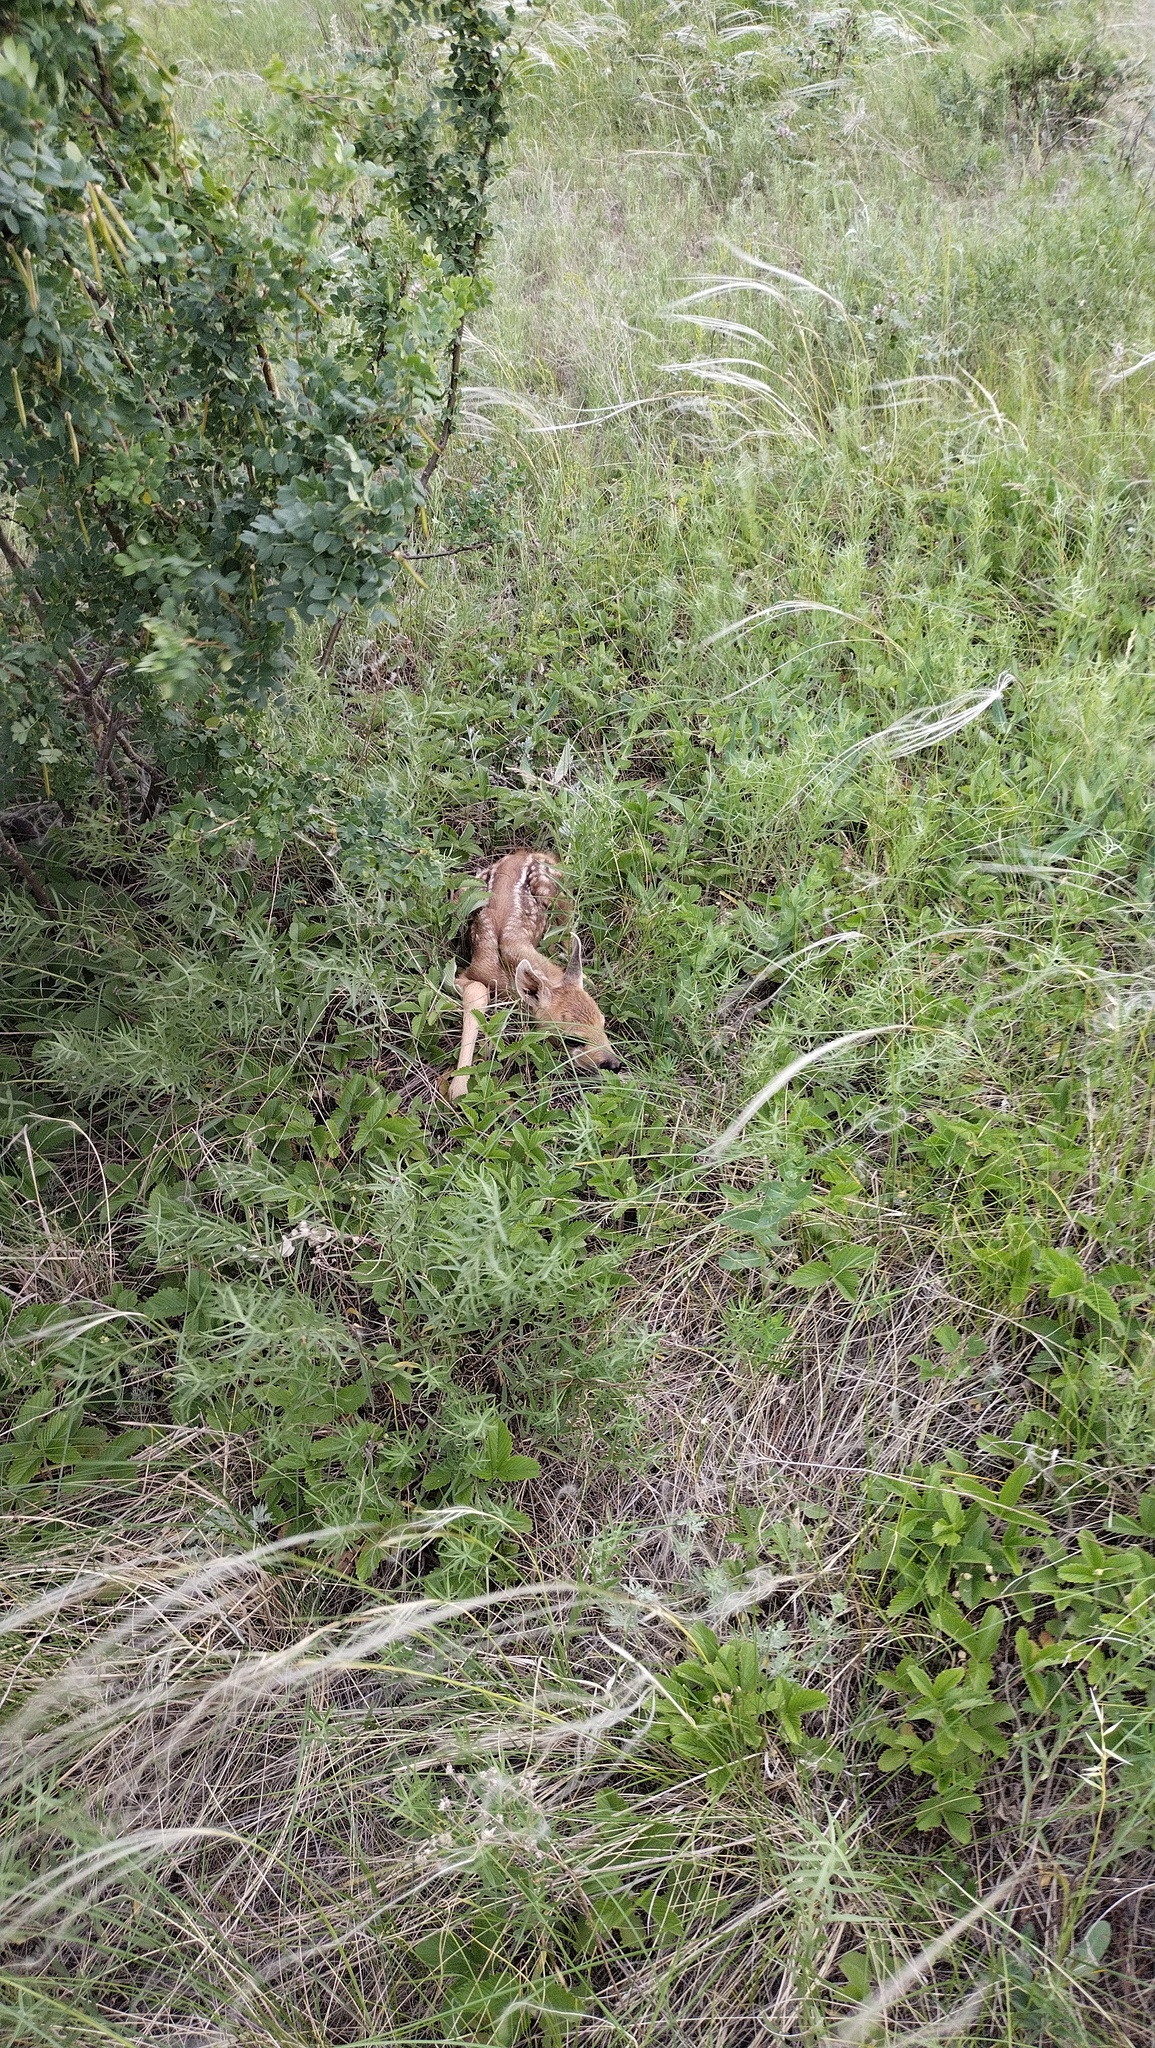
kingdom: Animalia
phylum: Chordata
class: Mammalia
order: Artiodactyla
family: Cervidae
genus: Capreolus
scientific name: Capreolus pygargus
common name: Siberian roe
